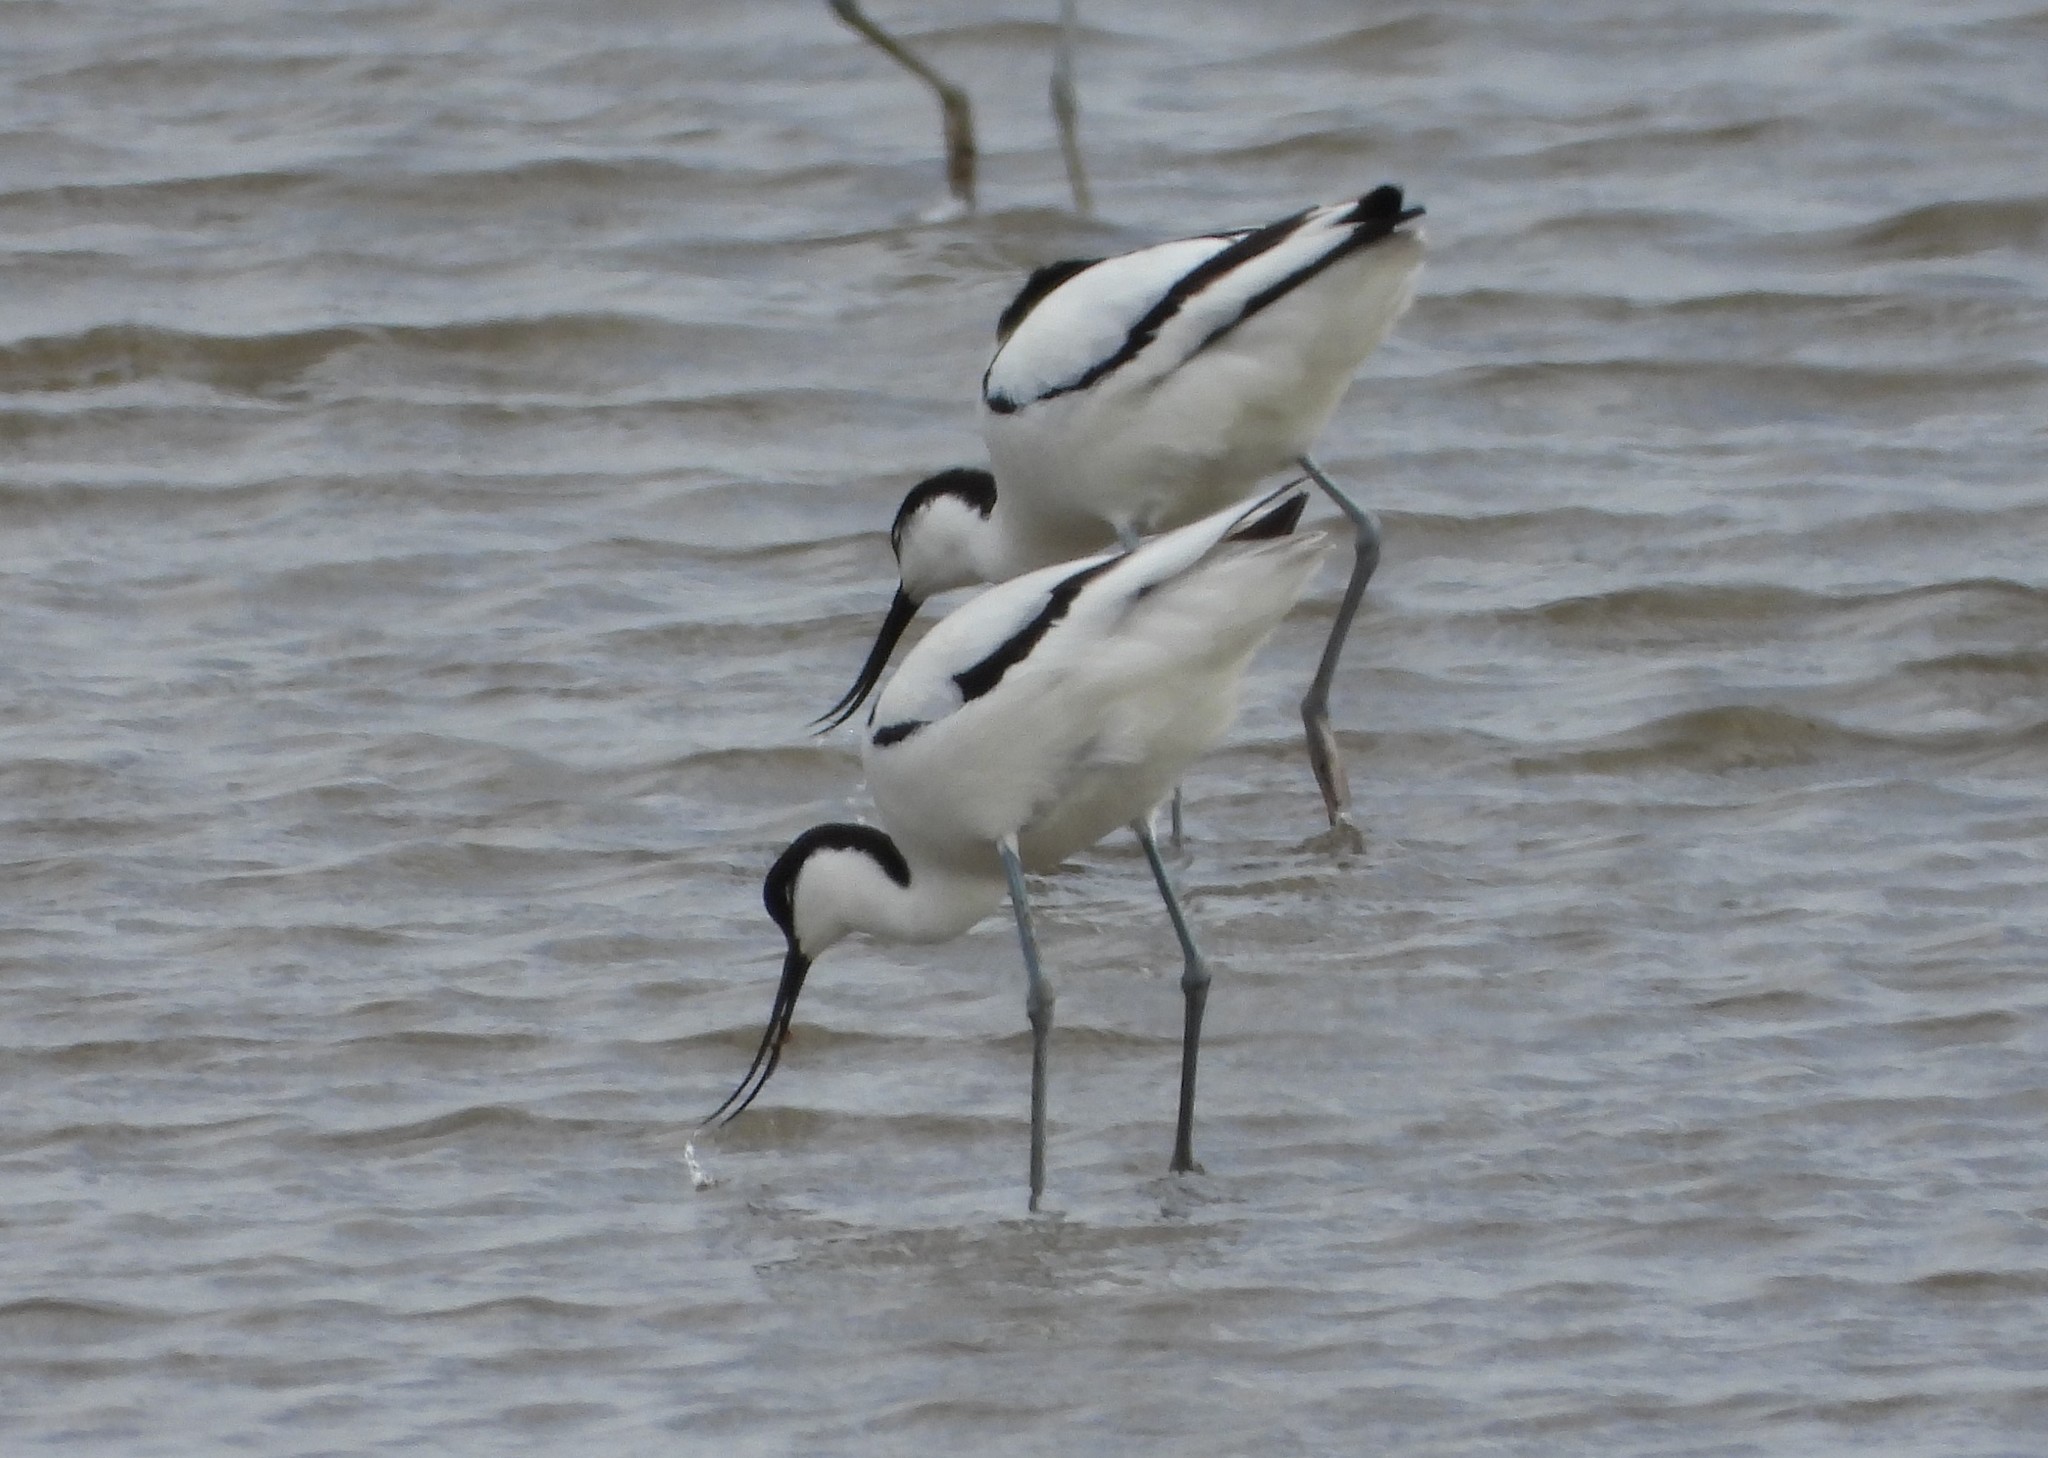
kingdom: Animalia
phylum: Chordata
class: Aves
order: Charadriiformes
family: Recurvirostridae
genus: Recurvirostra
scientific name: Recurvirostra avosetta
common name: Pied avocet
